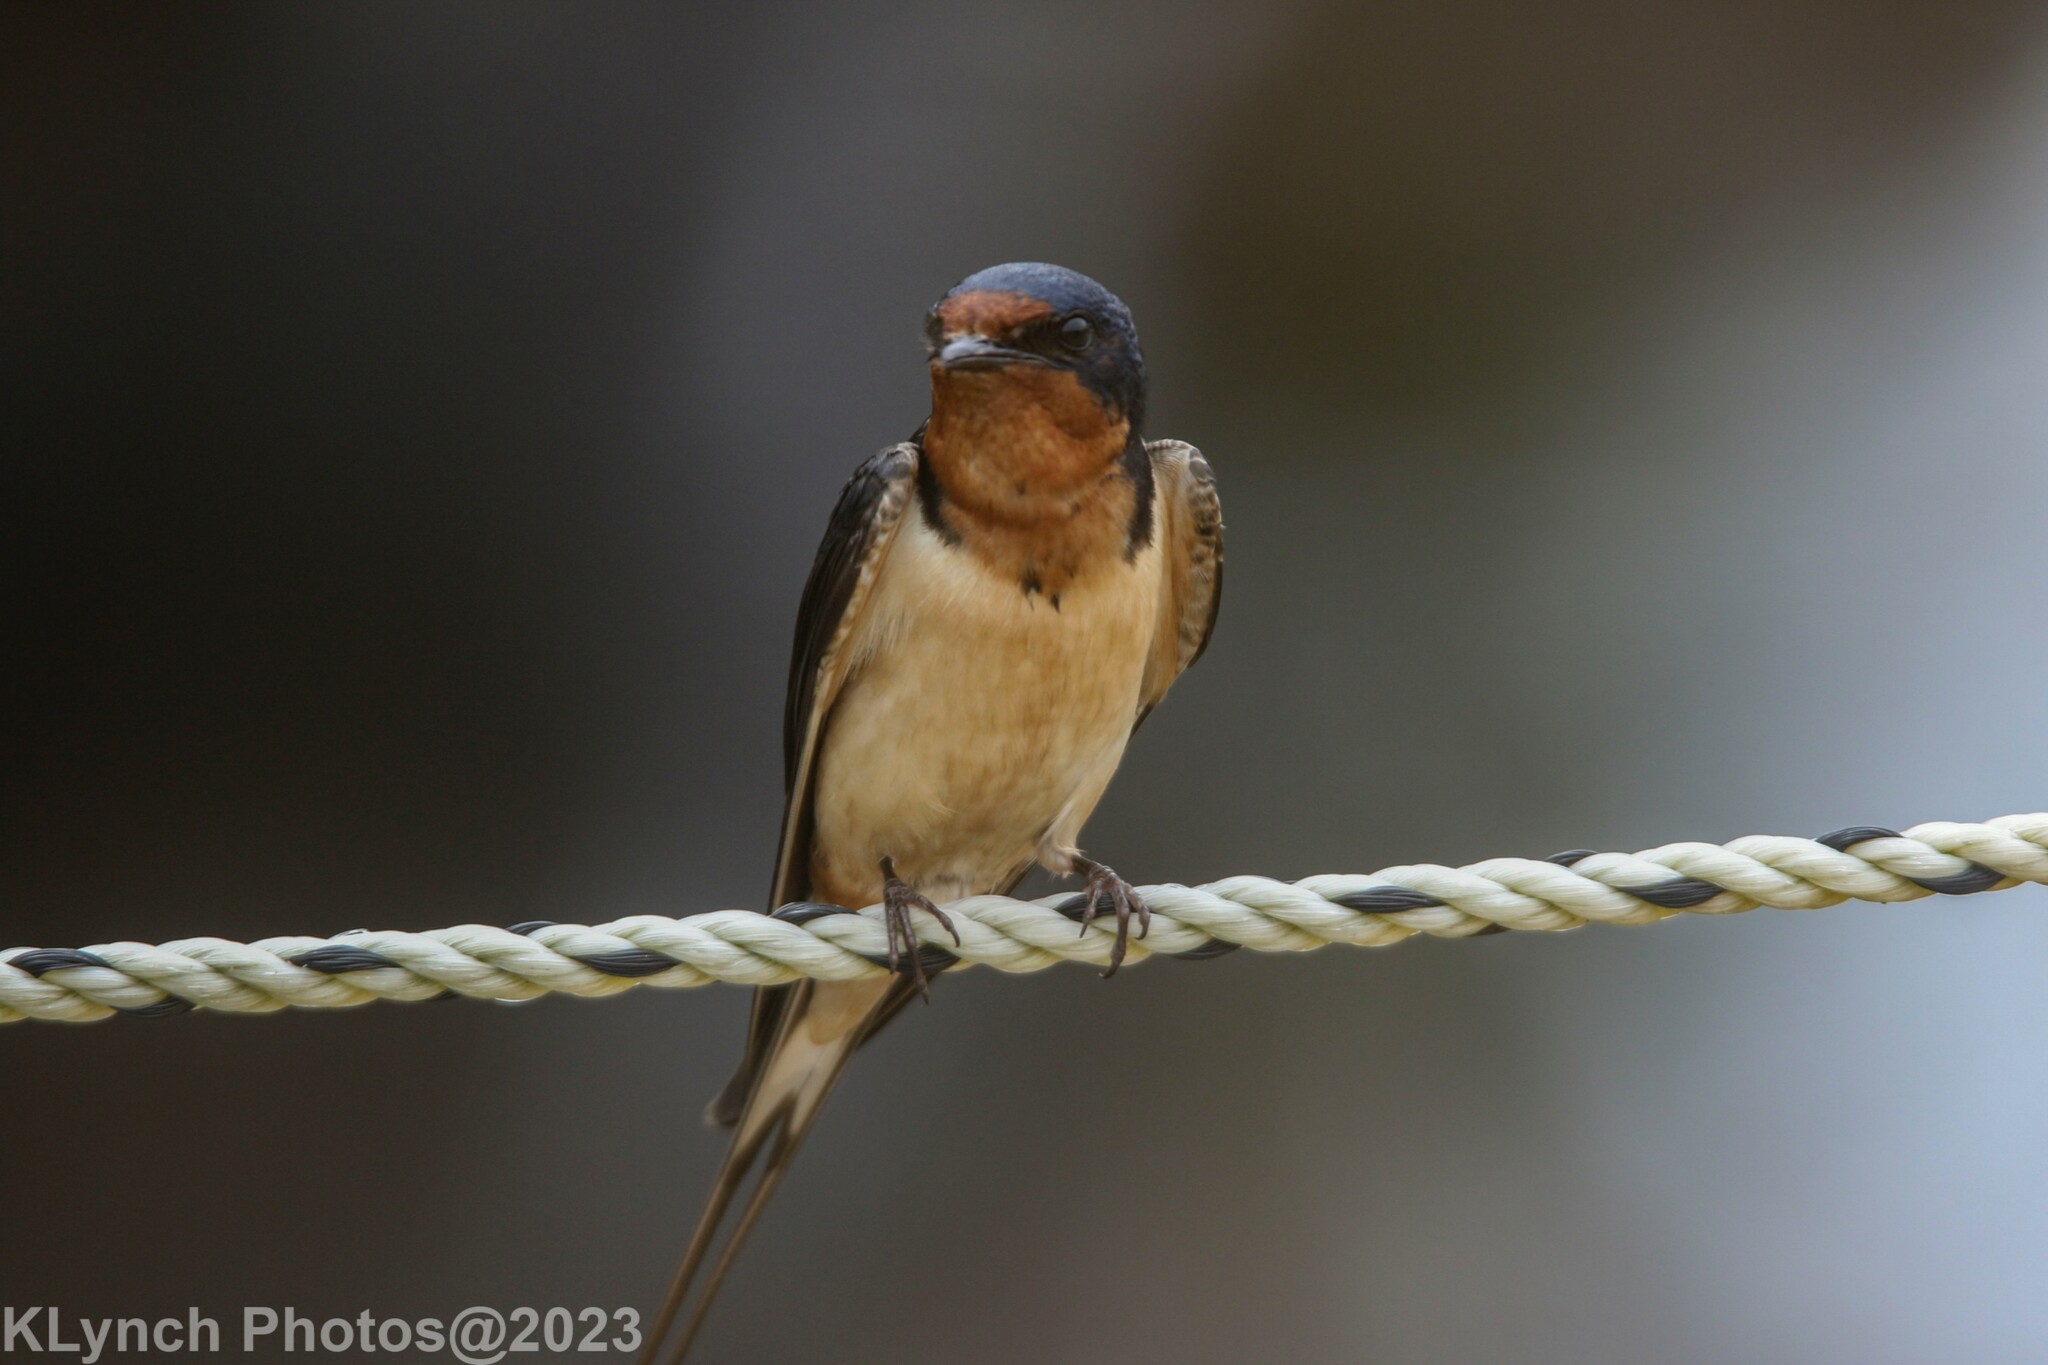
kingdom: Animalia
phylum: Chordata
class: Aves
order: Passeriformes
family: Hirundinidae
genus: Hirundo
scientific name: Hirundo rustica
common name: Barn swallow
